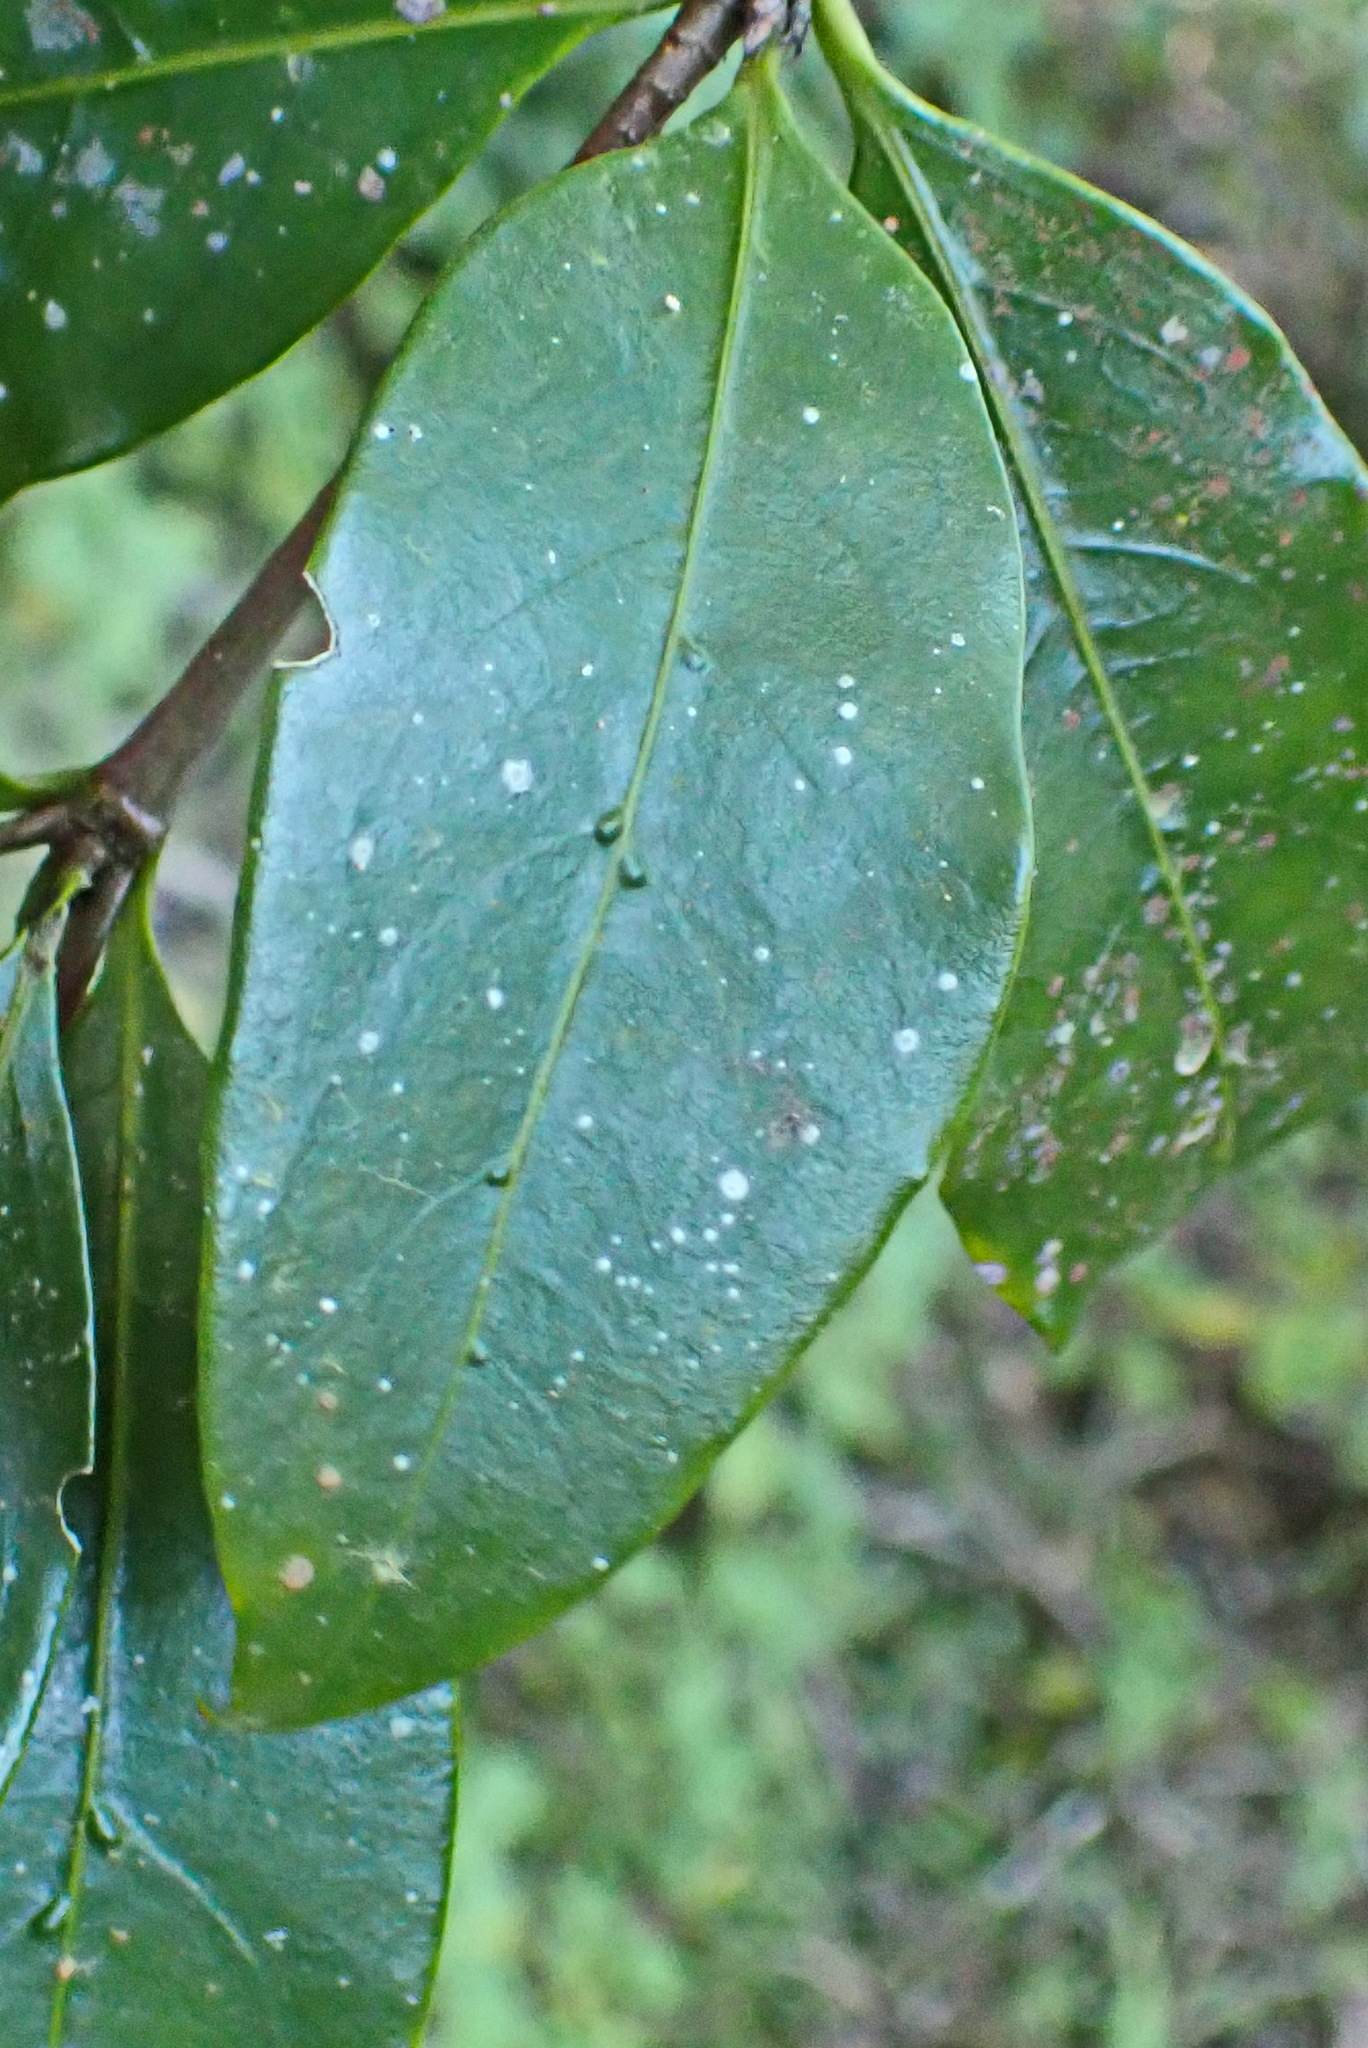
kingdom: Plantae
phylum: Tracheophyta
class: Magnoliopsida
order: Gentianales
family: Rubiaceae
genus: Rothmannia
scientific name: Rothmannia capensis
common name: Cape gardenia
